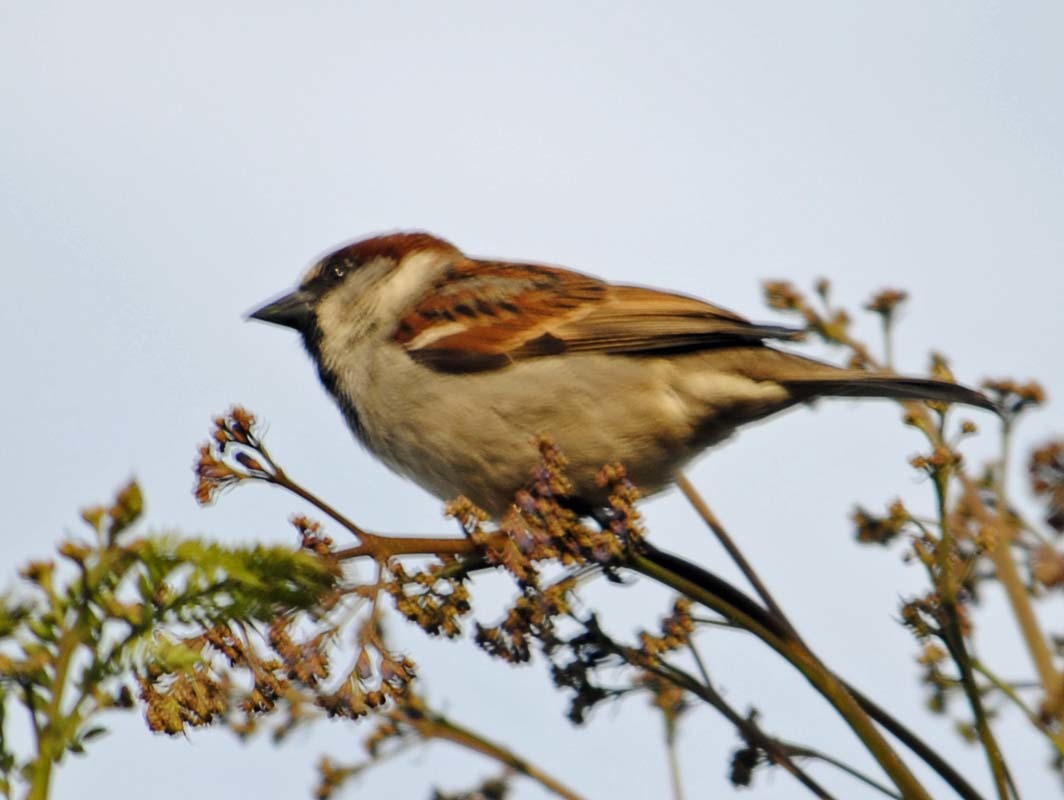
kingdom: Animalia
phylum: Chordata
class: Aves
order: Passeriformes
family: Passeridae
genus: Passer
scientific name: Passer domesticus
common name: House sparrow
